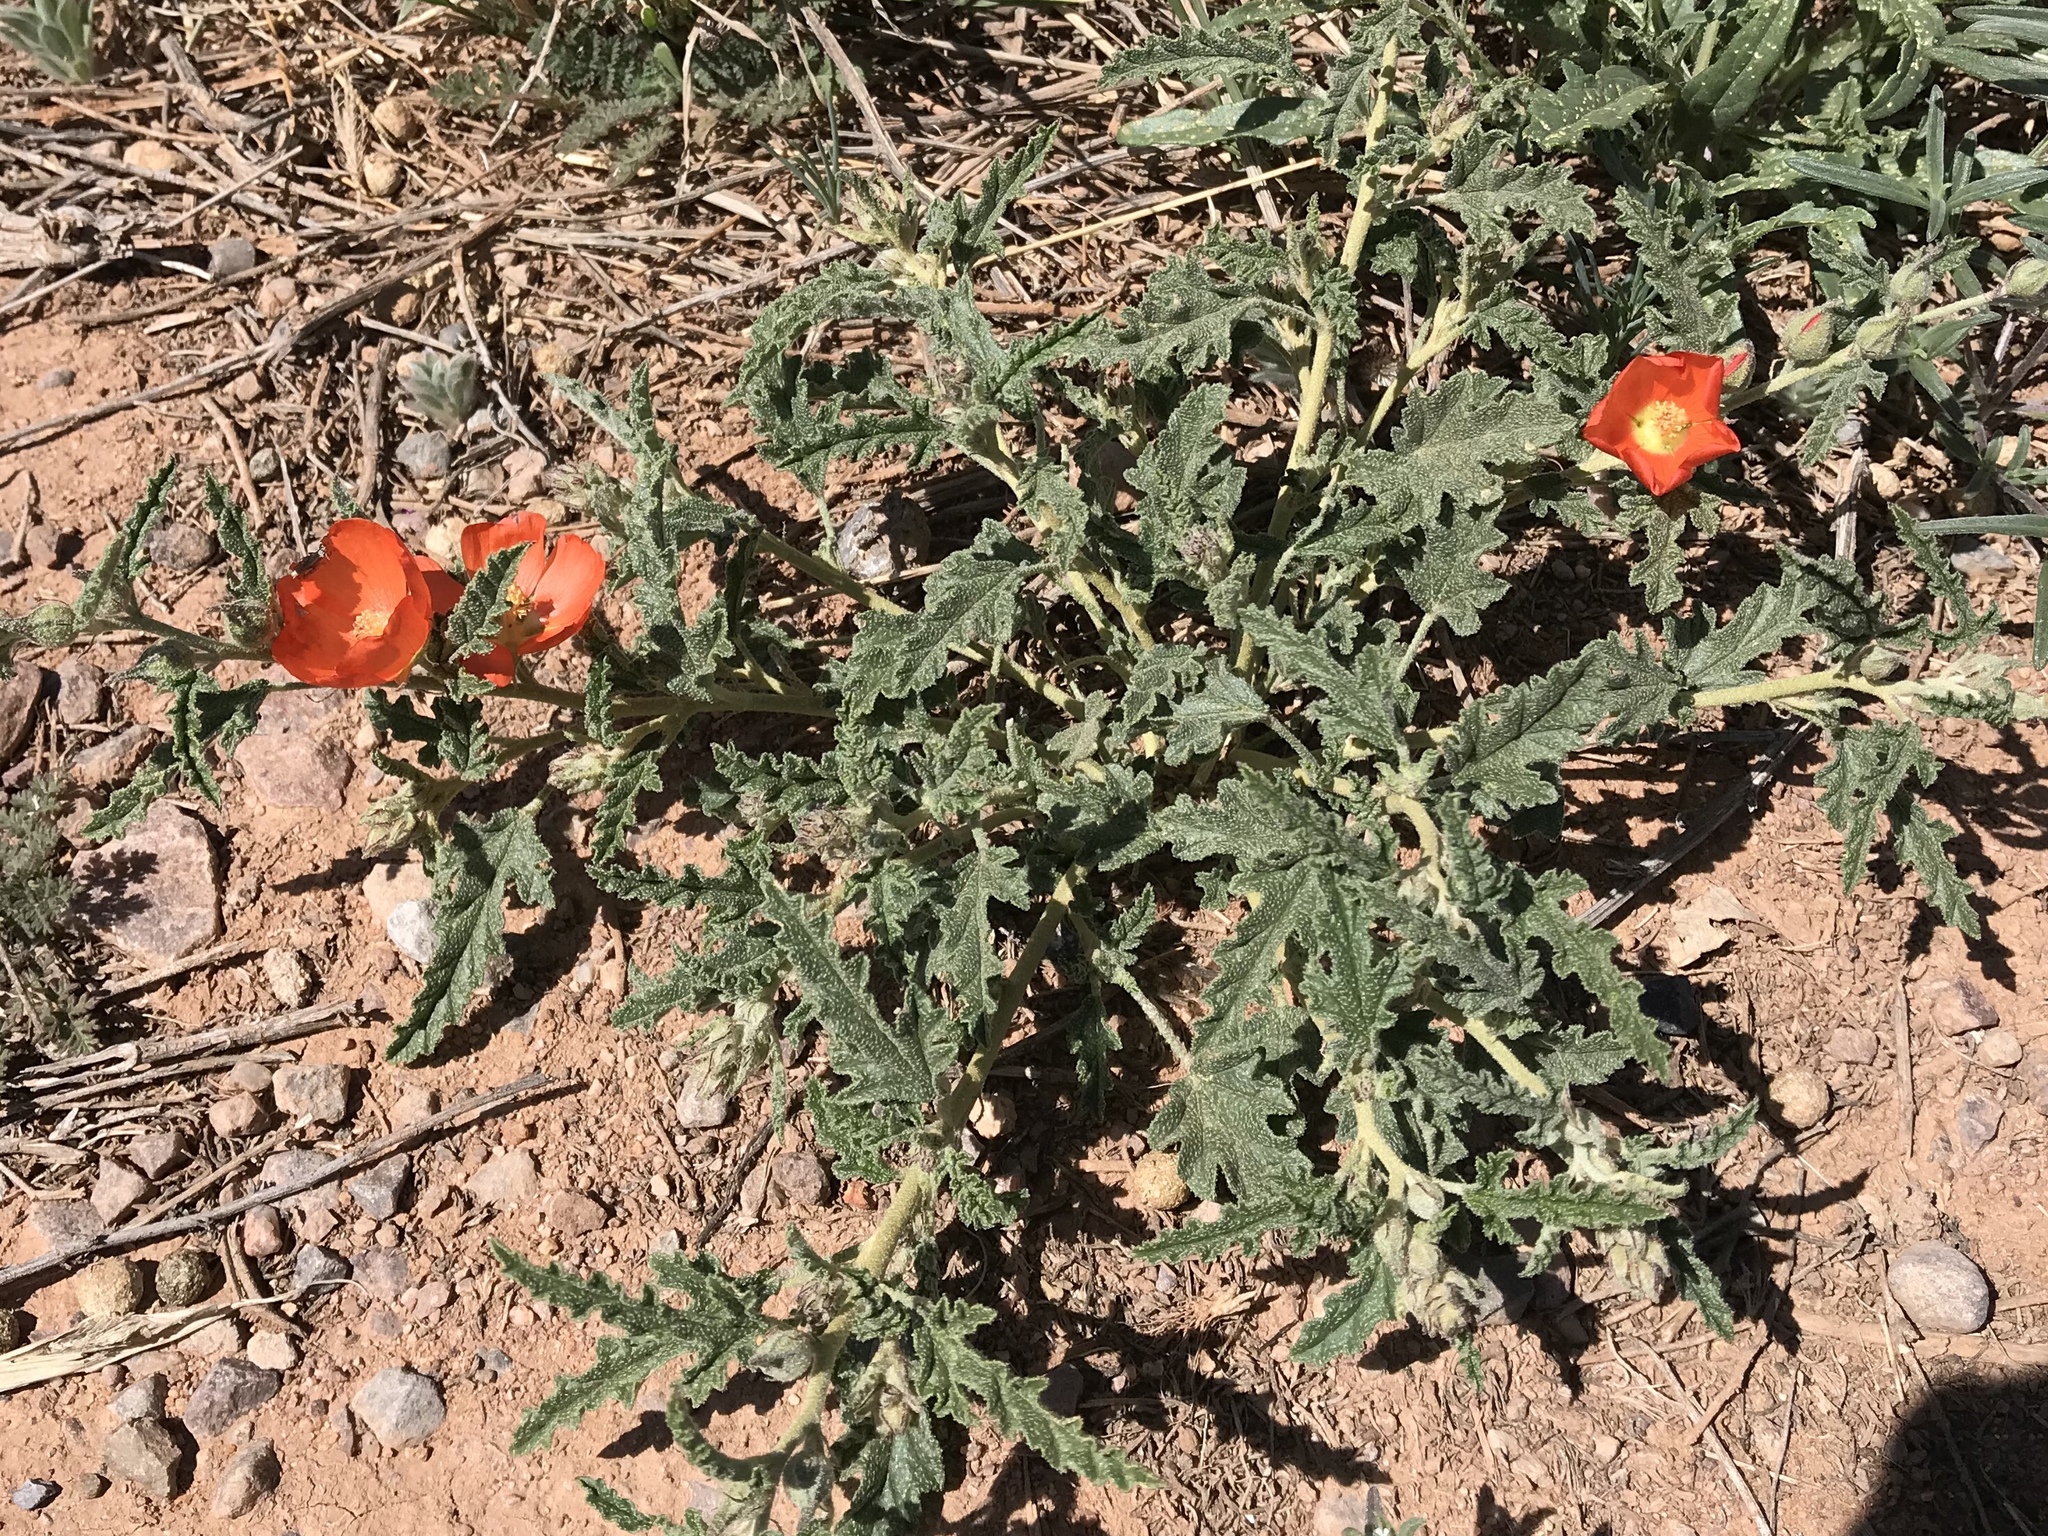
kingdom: Plantae
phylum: Tracheophyta
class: Magnoliopsida
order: Malvales
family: Malvaceae
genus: Sphaeralcea
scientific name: Sphaeralcea hastulata
